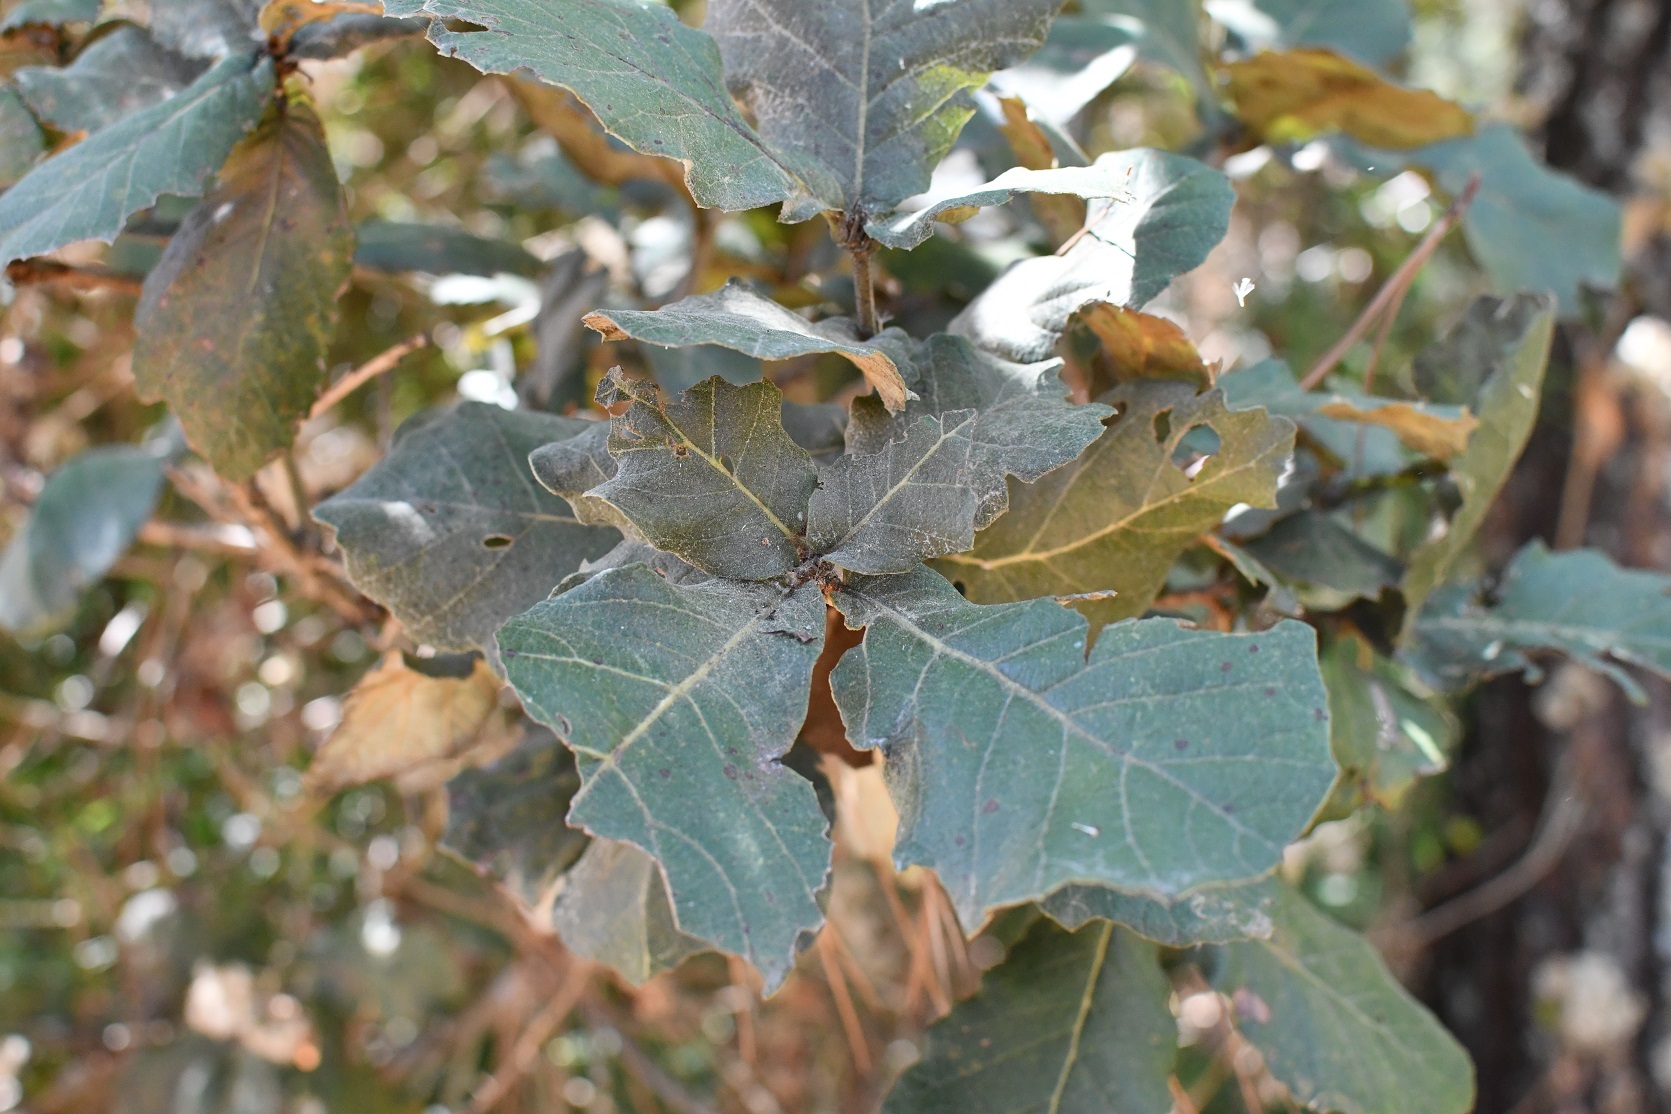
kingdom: Plantae
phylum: Tracheophyta
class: Magnoliopsida
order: Fagales
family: Fagaceae
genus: Quercus
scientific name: Quercus rugosa
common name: Netleaf oak
